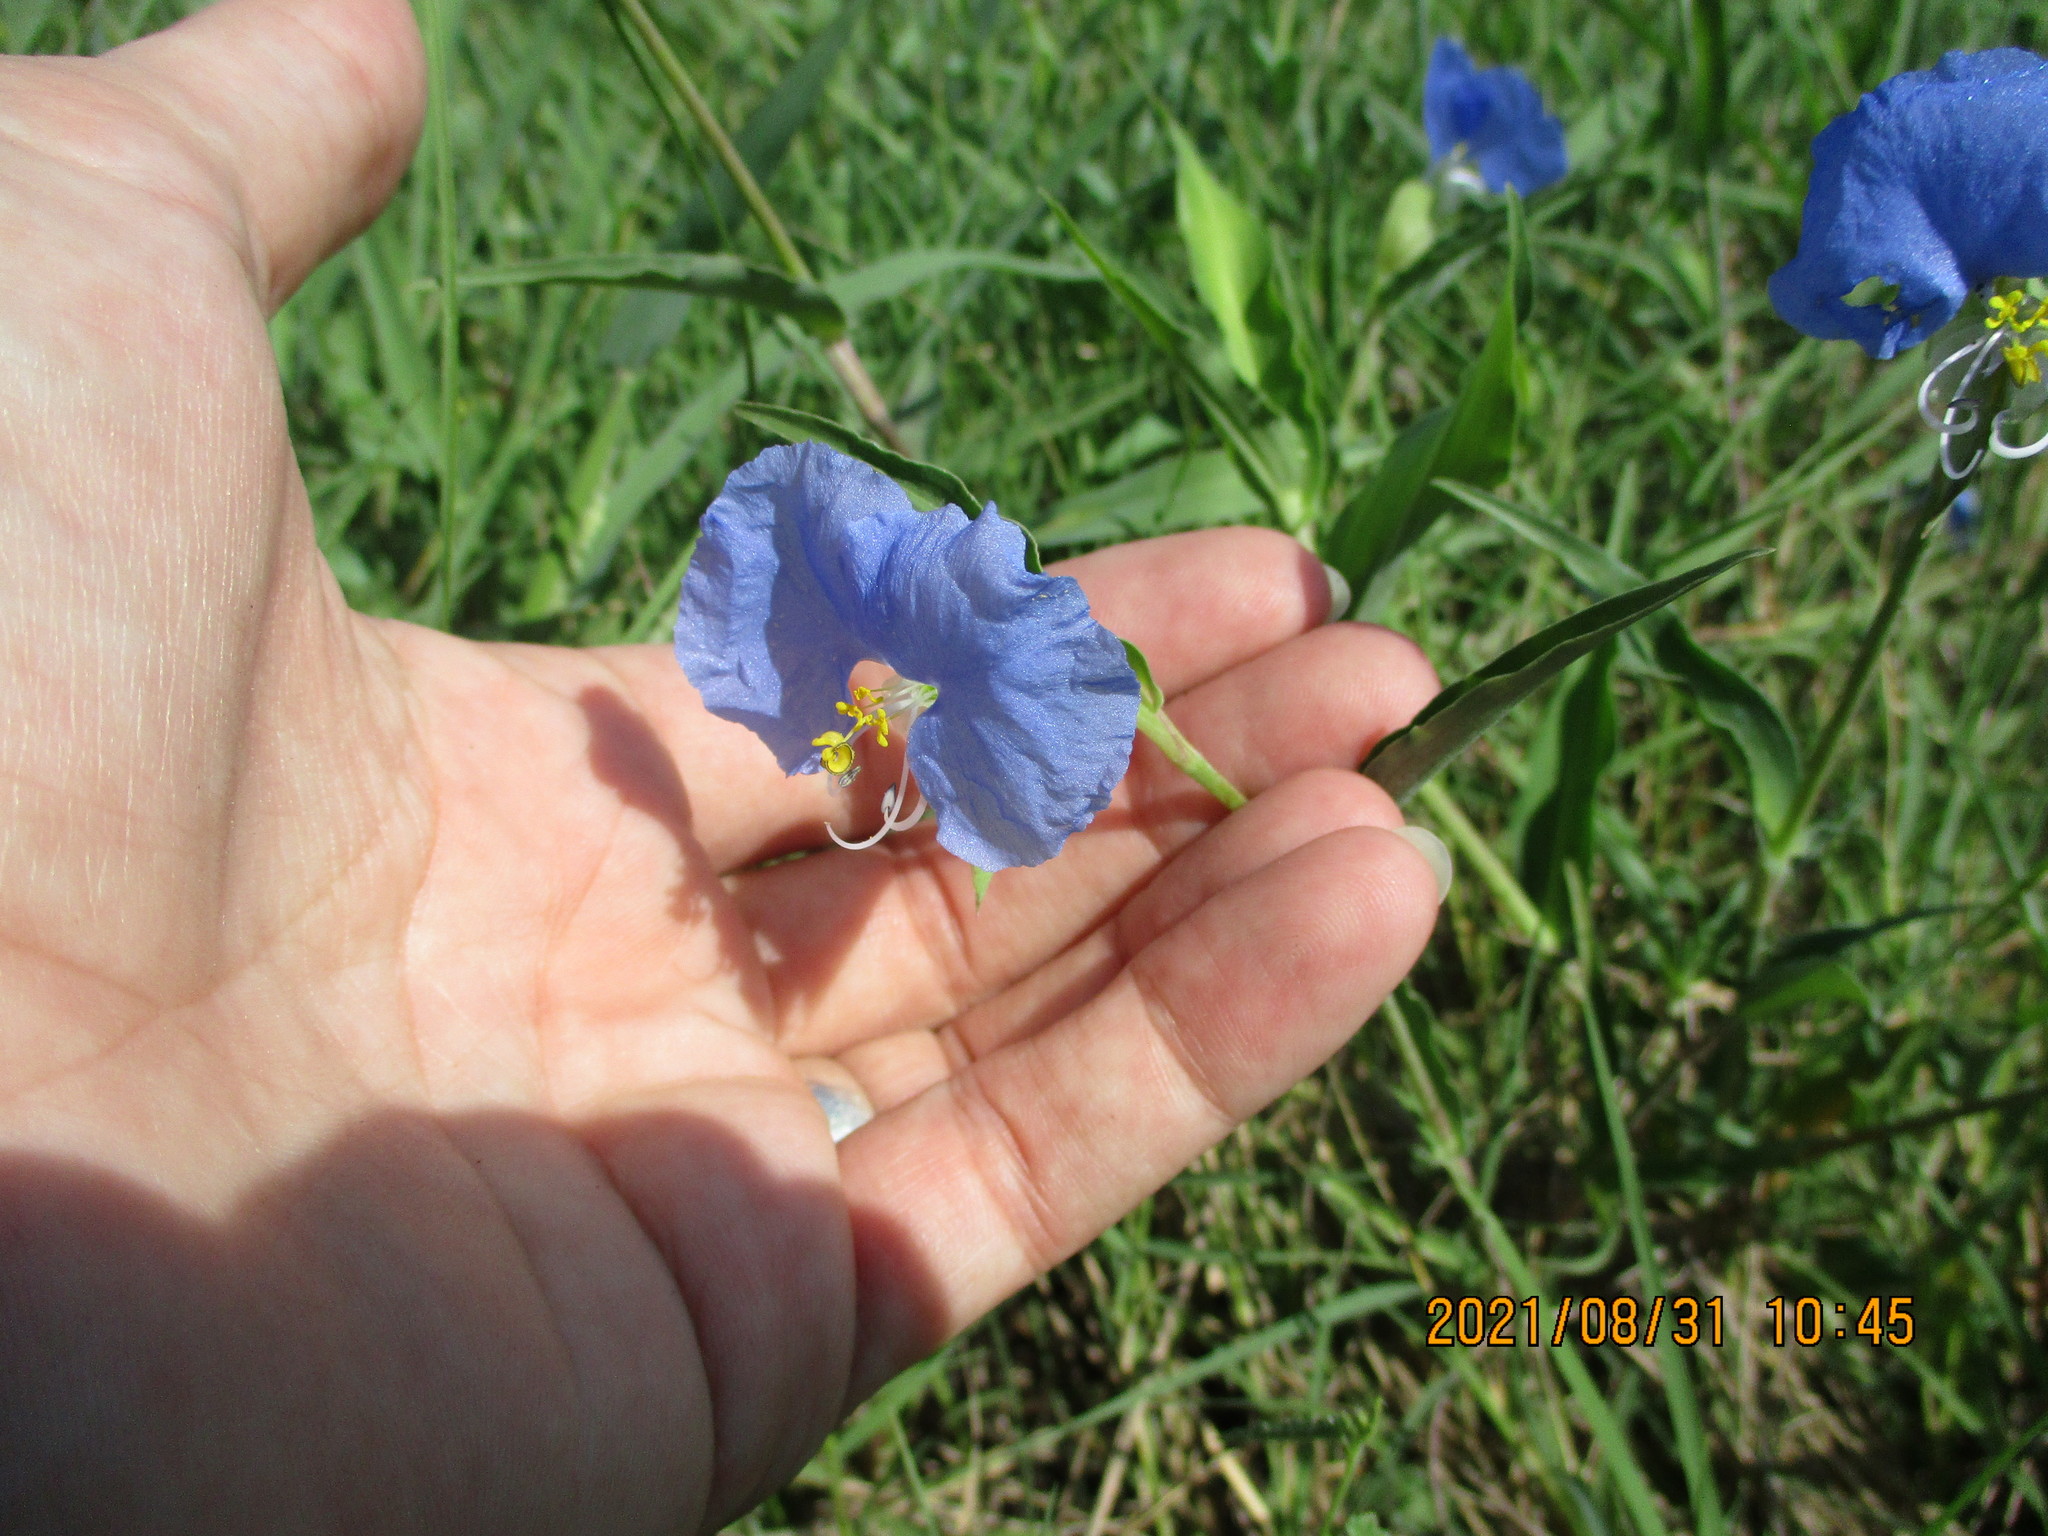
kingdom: Plantae
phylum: Tracheophyta
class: Liliopsida
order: Commelinales
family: Commelinaceae
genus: Commelina
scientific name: Commelina erecta
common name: Blousel blommetjie
